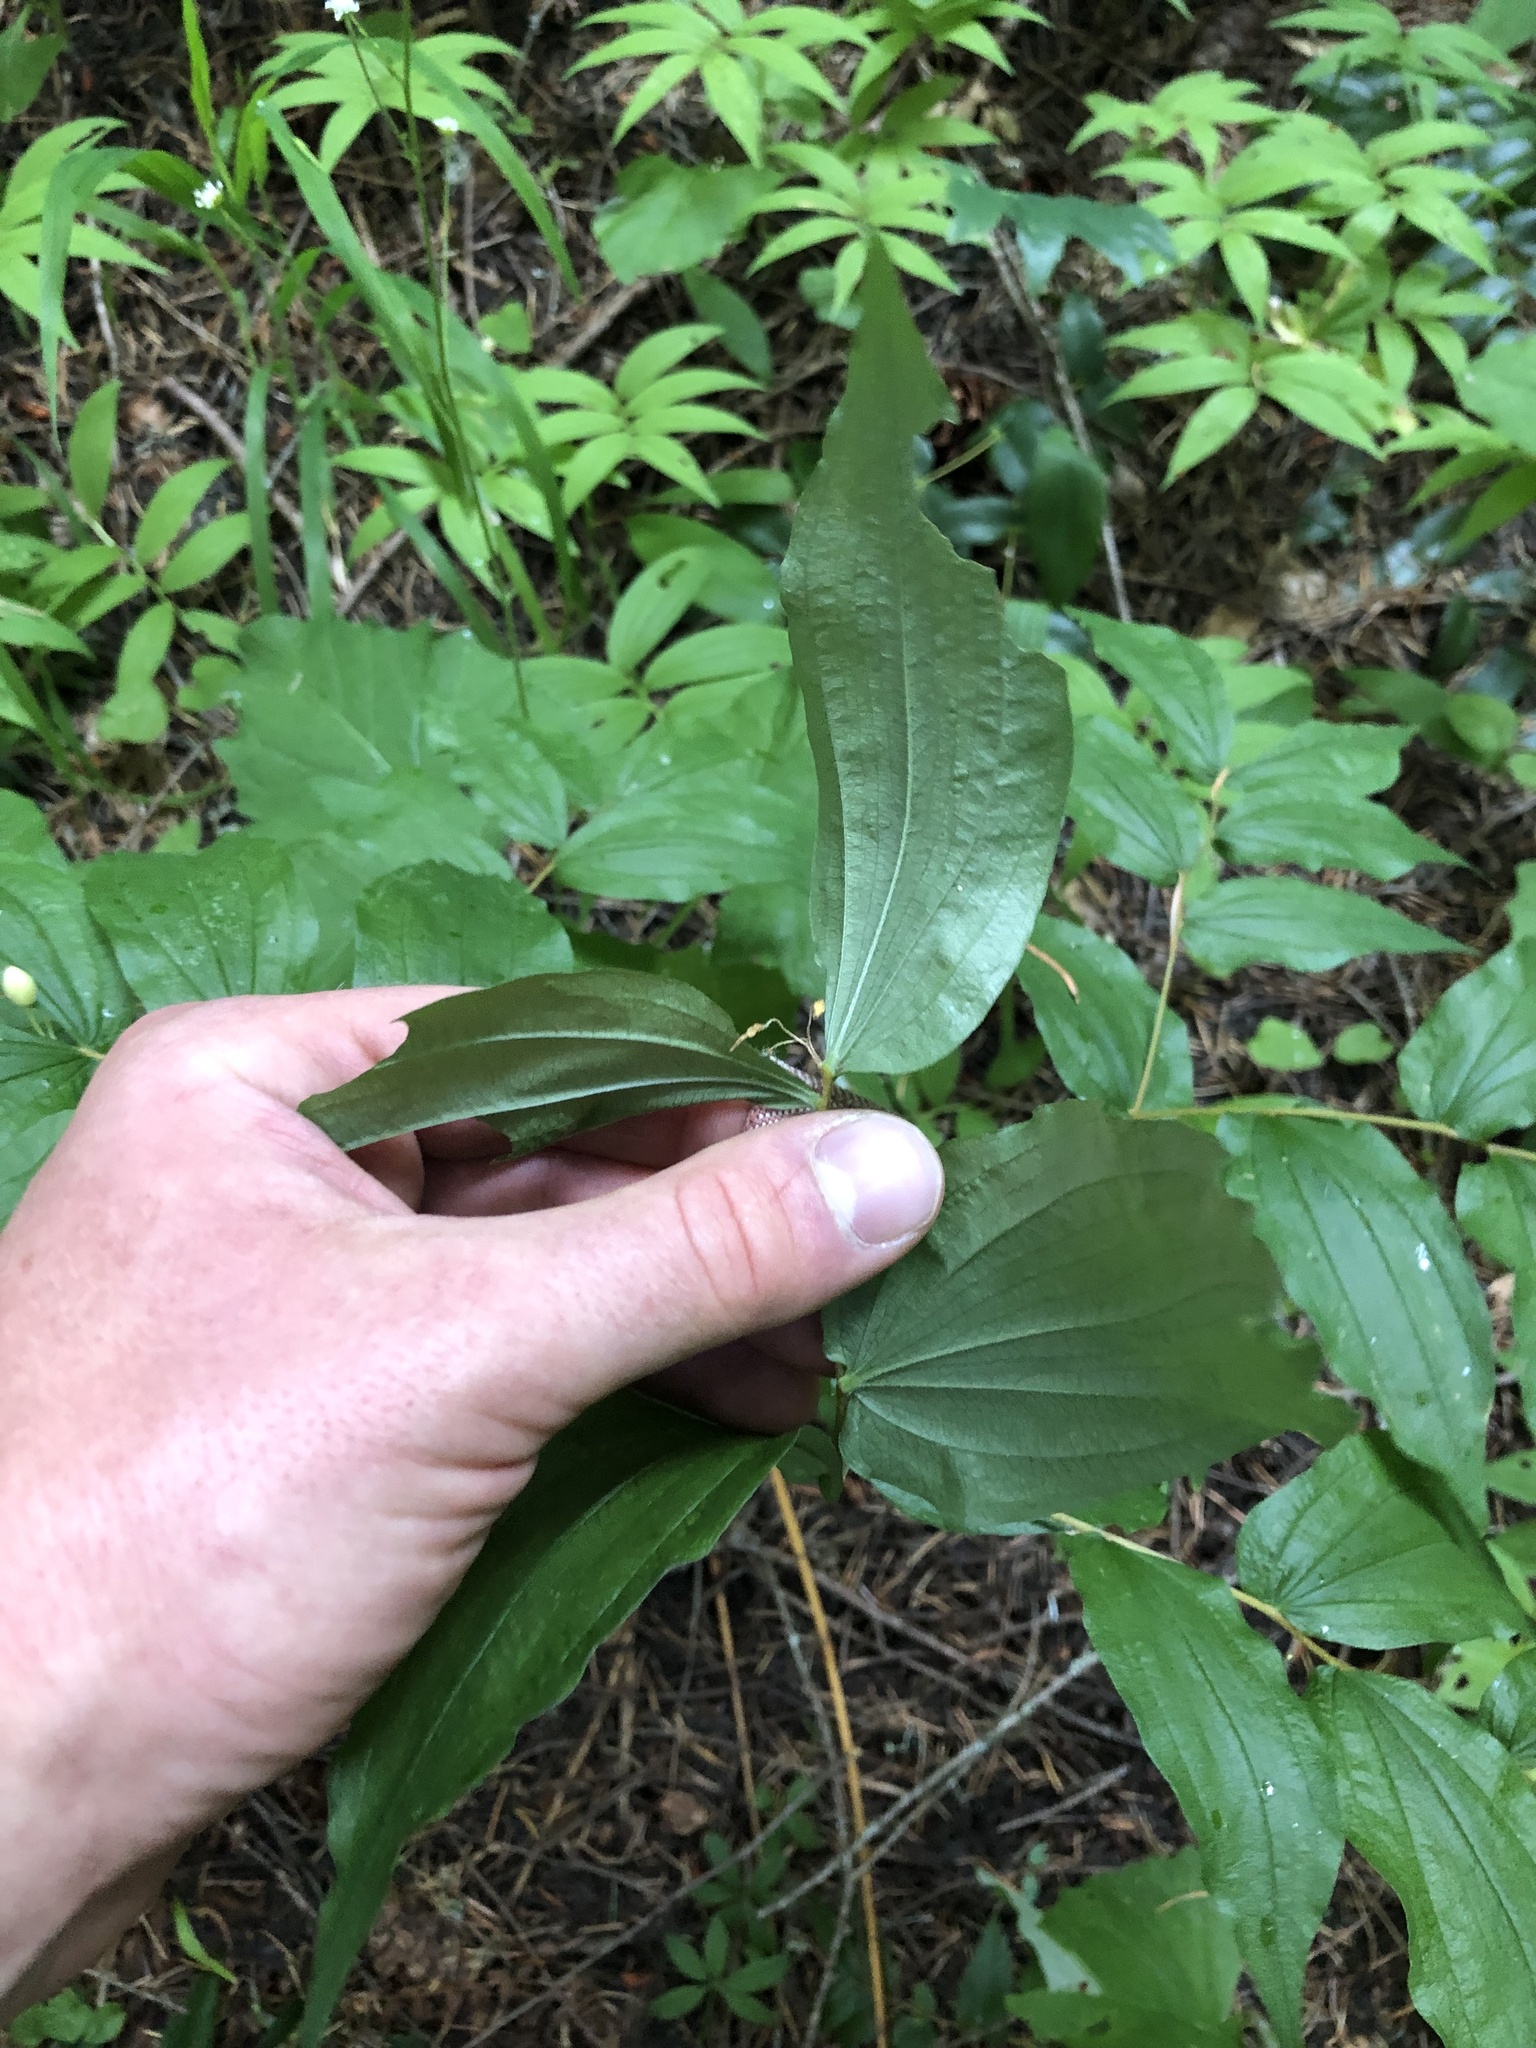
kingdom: Plantae
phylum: Tracheophyta
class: Liliopsida
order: Liliales
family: Liliaceae
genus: Prosartes
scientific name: Prosartes hookeri
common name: Fairy-bells
